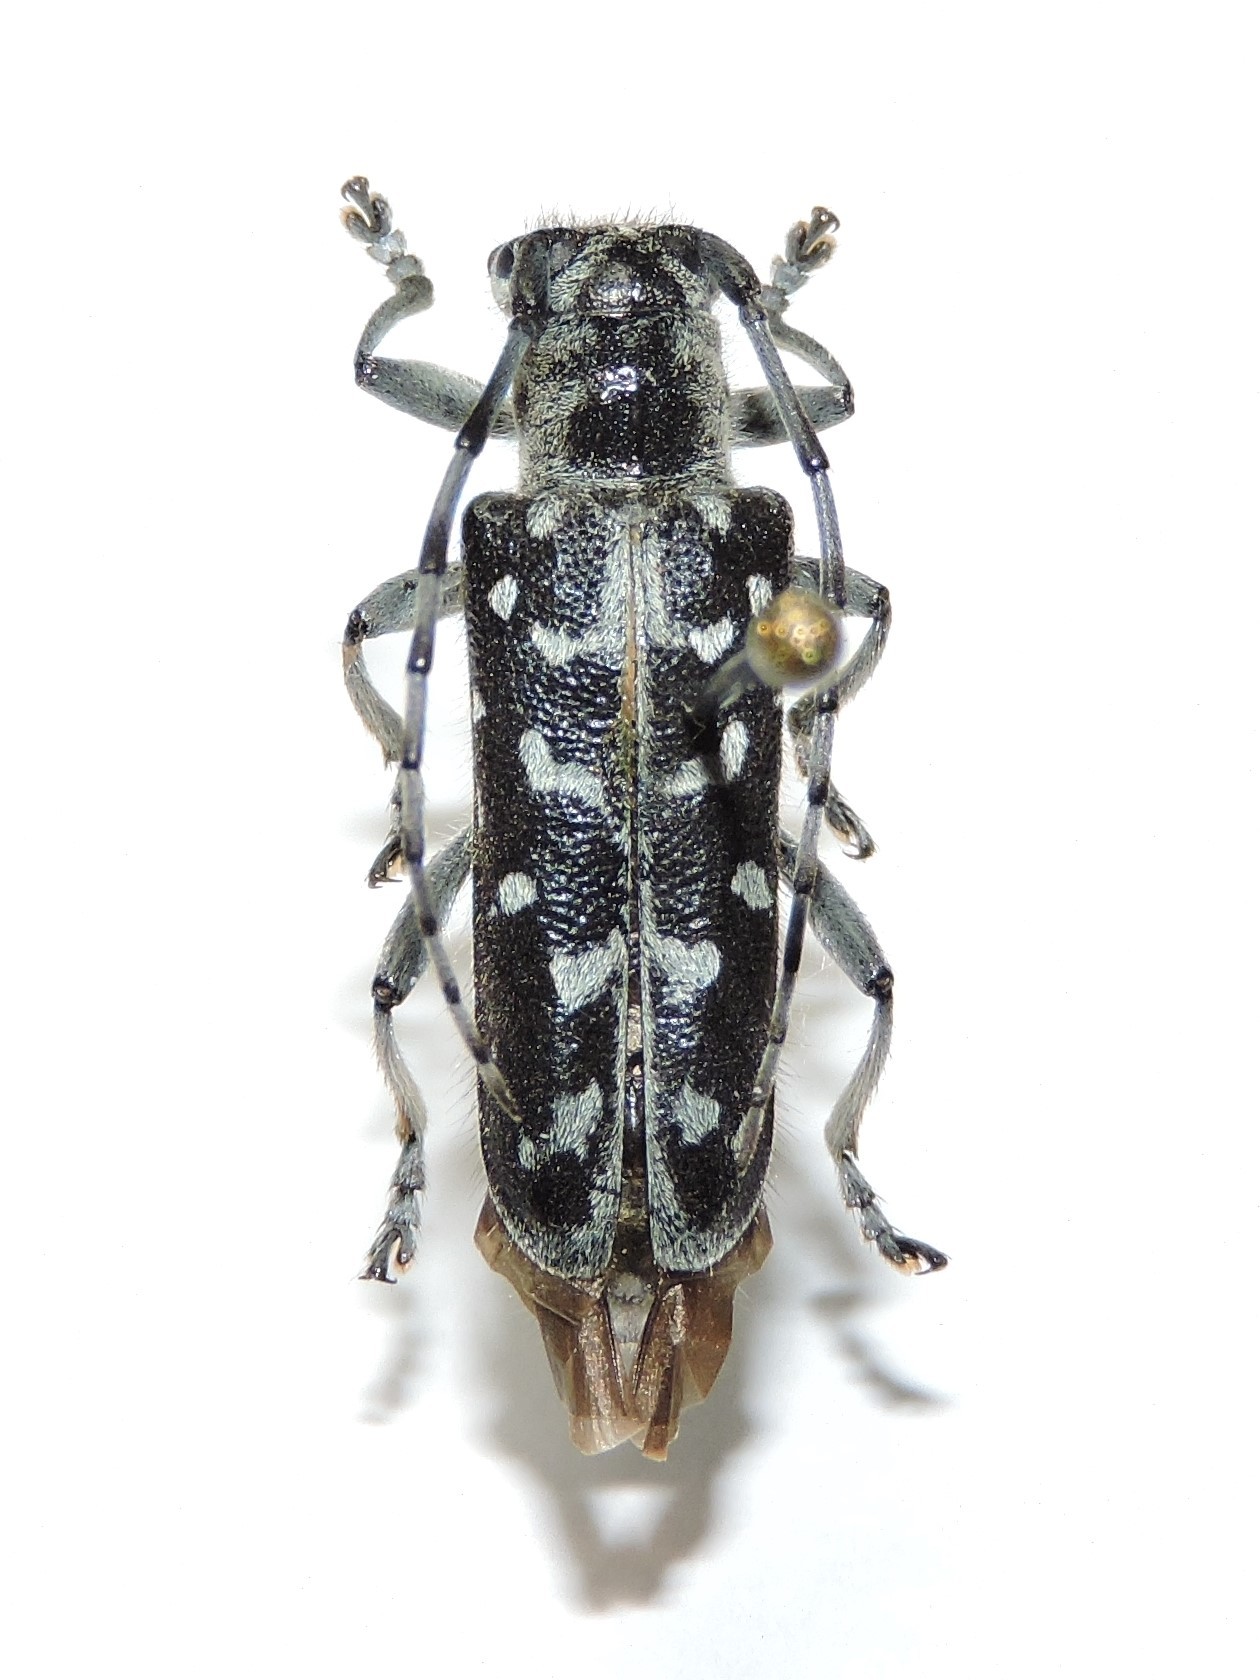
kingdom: Animalia
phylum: Arthropoda
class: Insecta
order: Coleoptera
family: Cerambycidae
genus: Saperda
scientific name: Saperda scalaris
